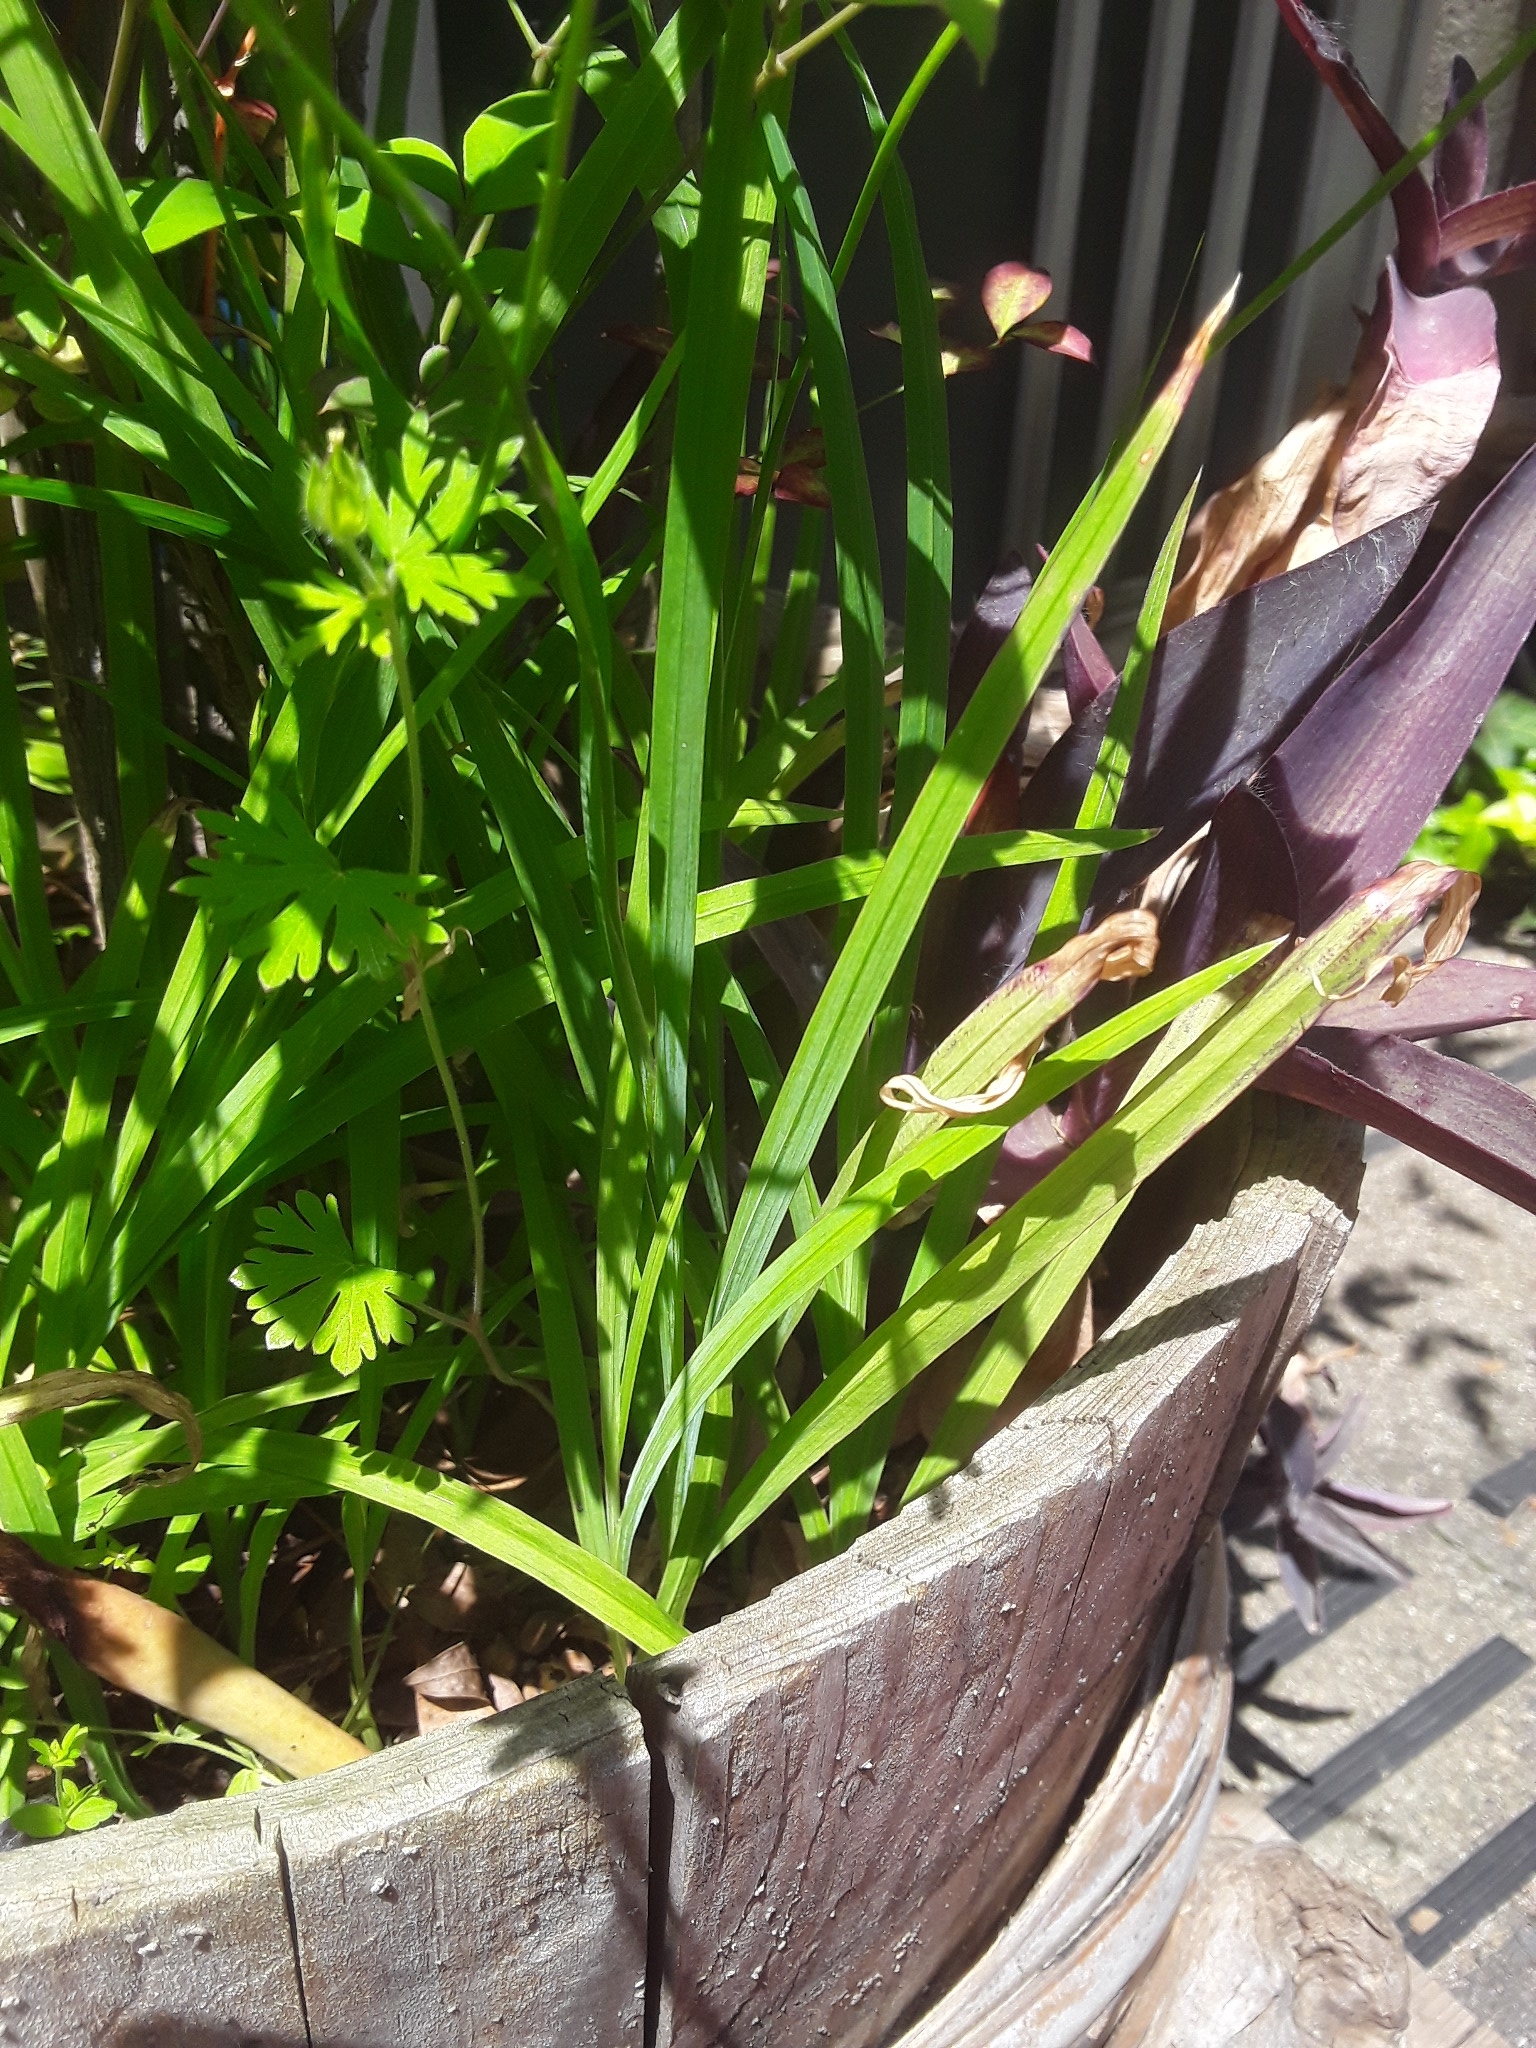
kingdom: Plantae
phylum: Tracheophyta
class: Liliopsida
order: Asparagales
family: Iridaceae
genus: Freesia
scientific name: Freesia laxa
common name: False freesia
